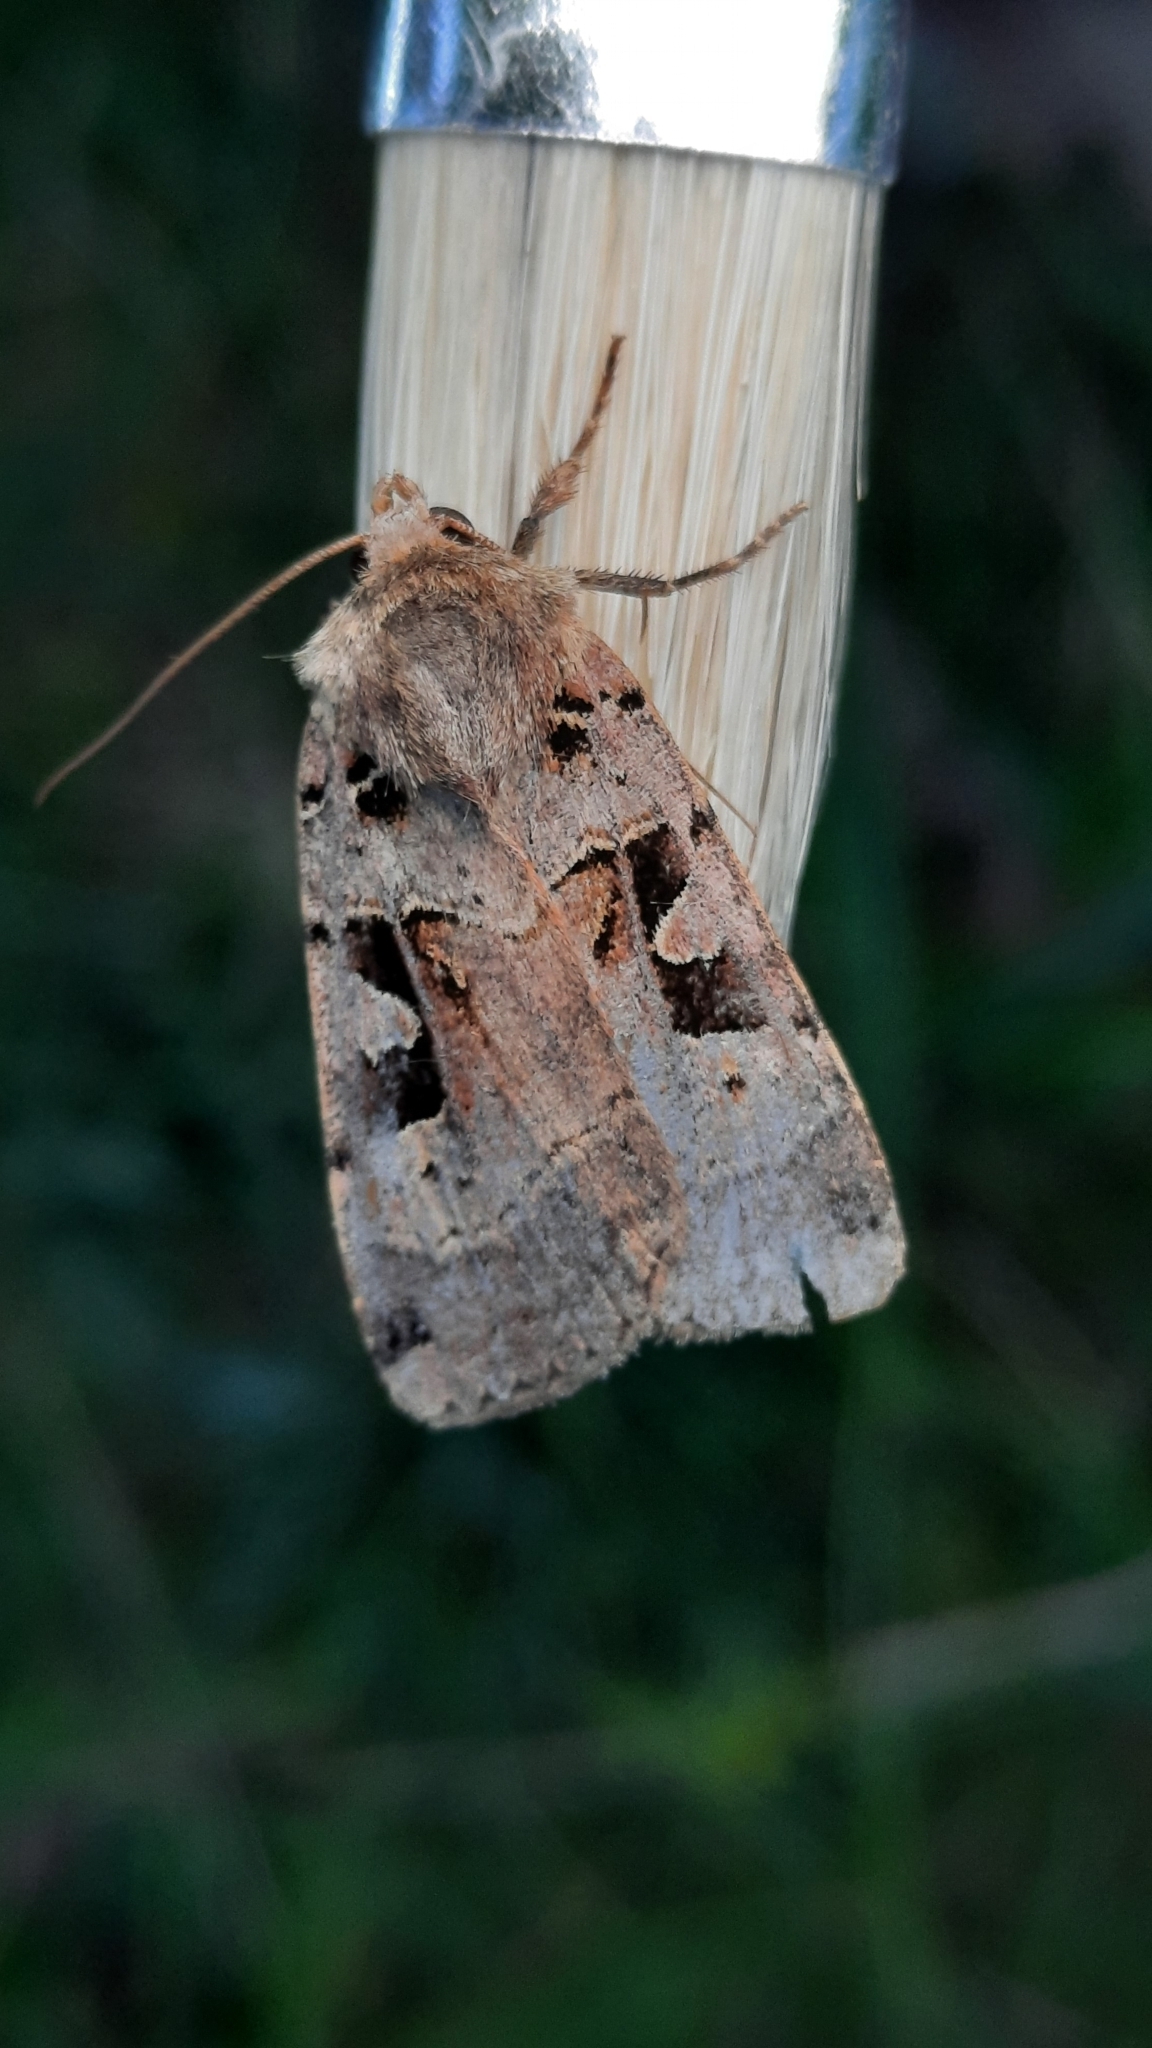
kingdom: Animalia
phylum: Arthropoda
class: Insecta
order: Lepidoptera
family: Noctuidae
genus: Xestia
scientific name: Xestia triangulum
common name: Double square-spot
